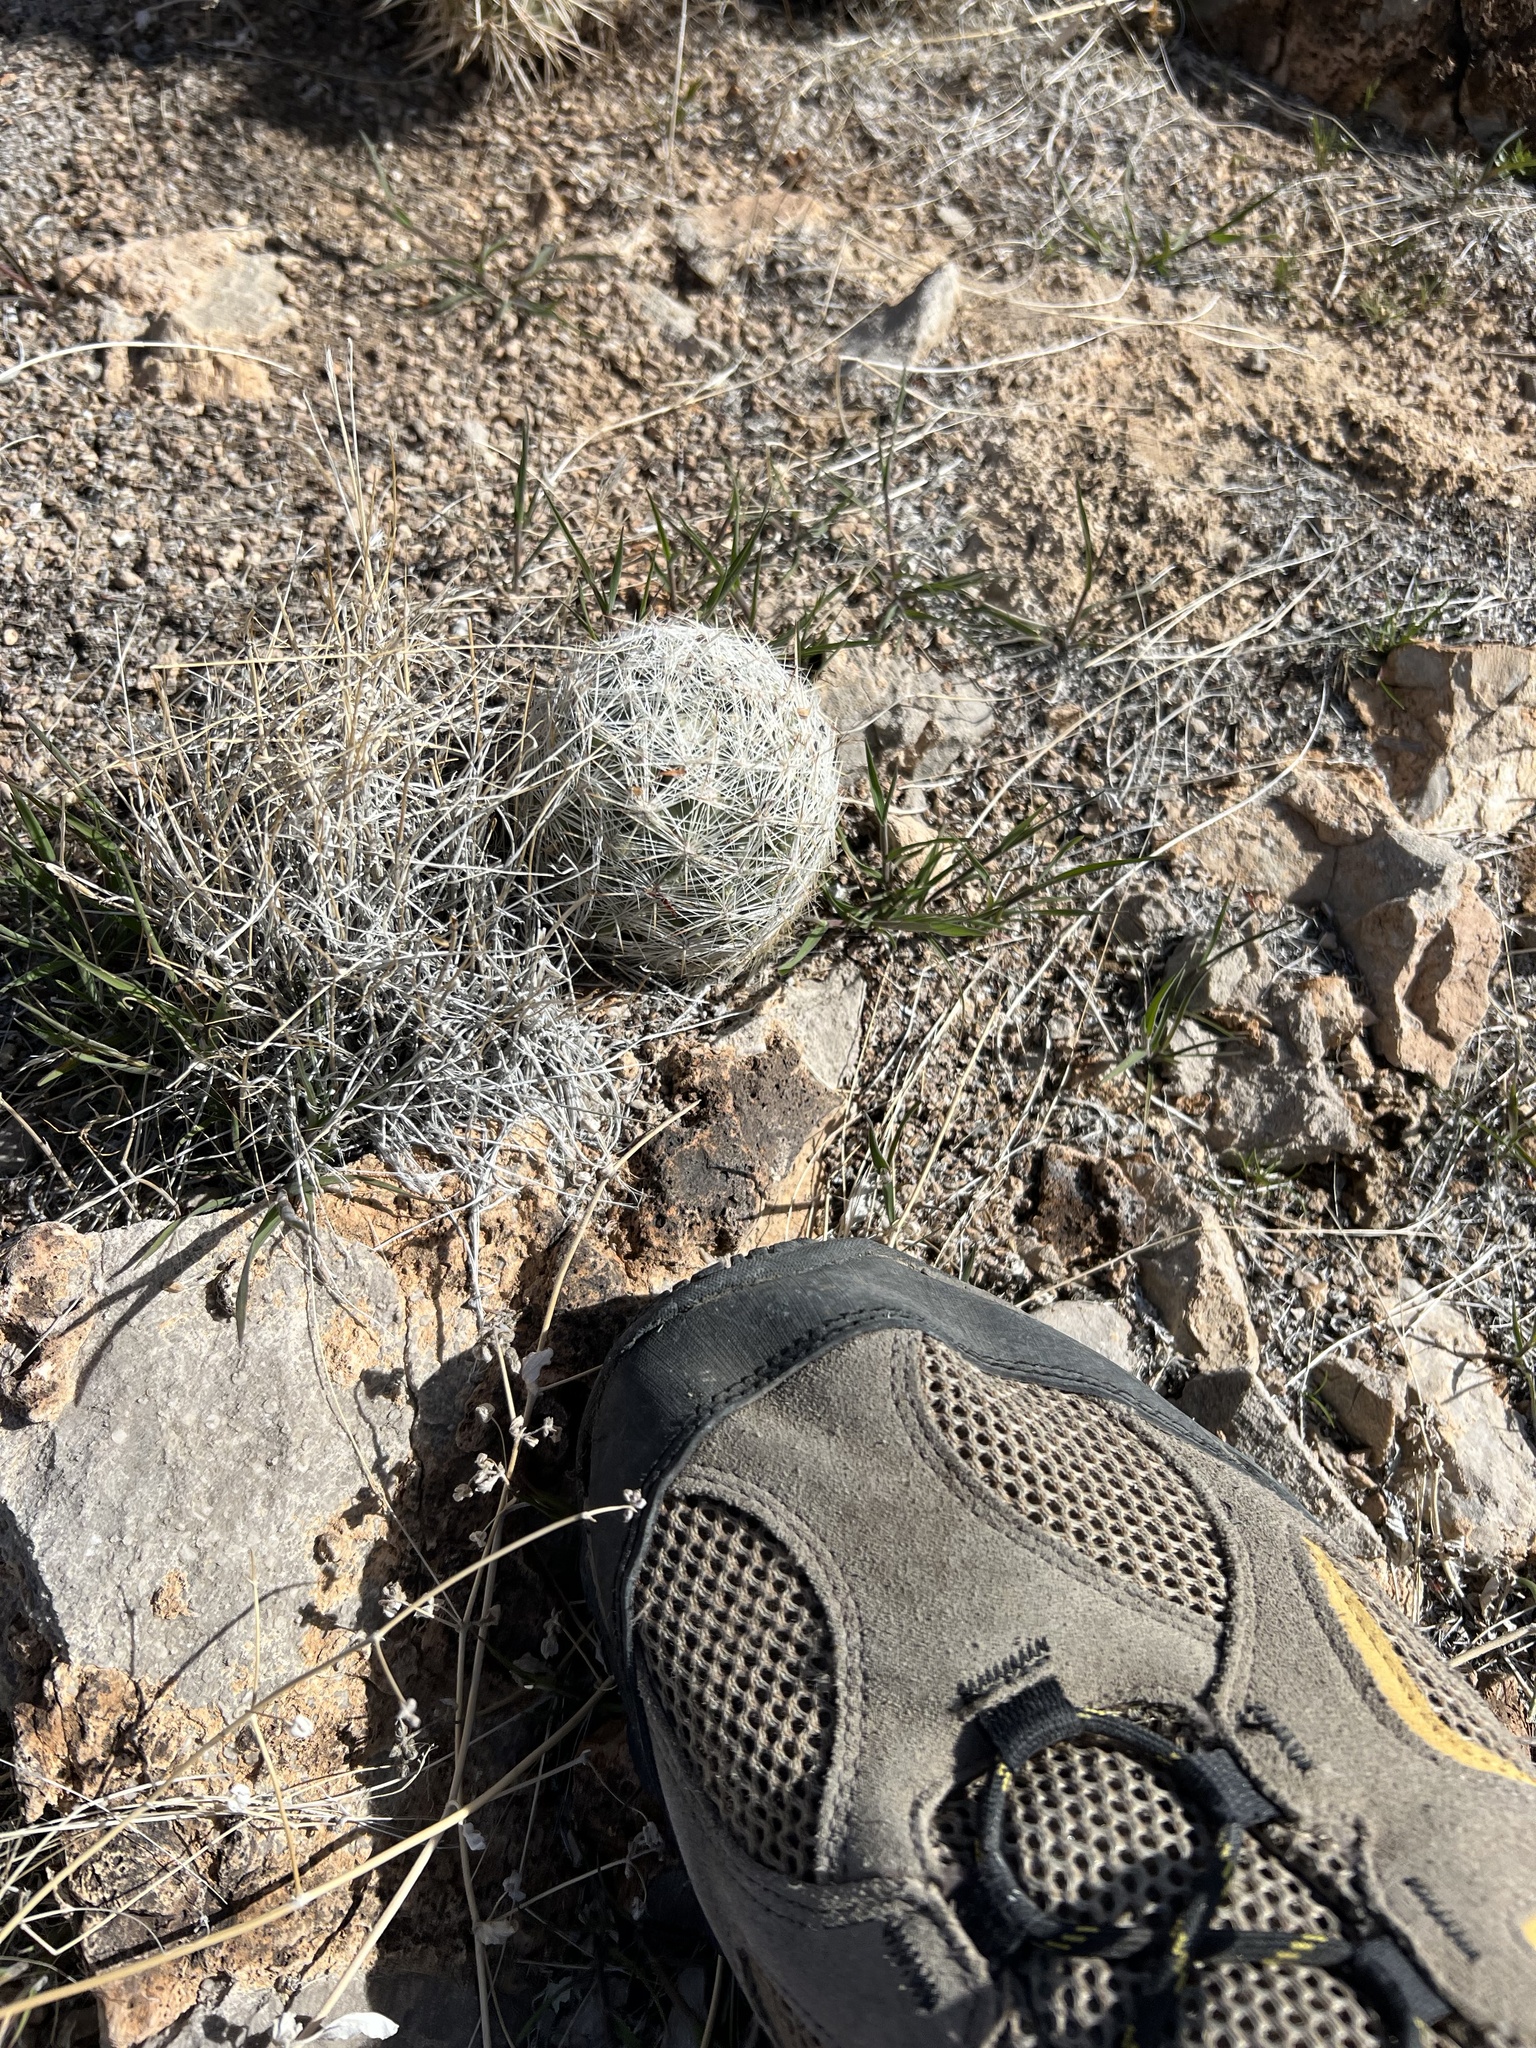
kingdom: Plantae
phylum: Tracheophyta
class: Magnoliopsida
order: Caryophyllales
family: Cactaceae
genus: Pelecyphora
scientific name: Pelecyphora dasyacantha
